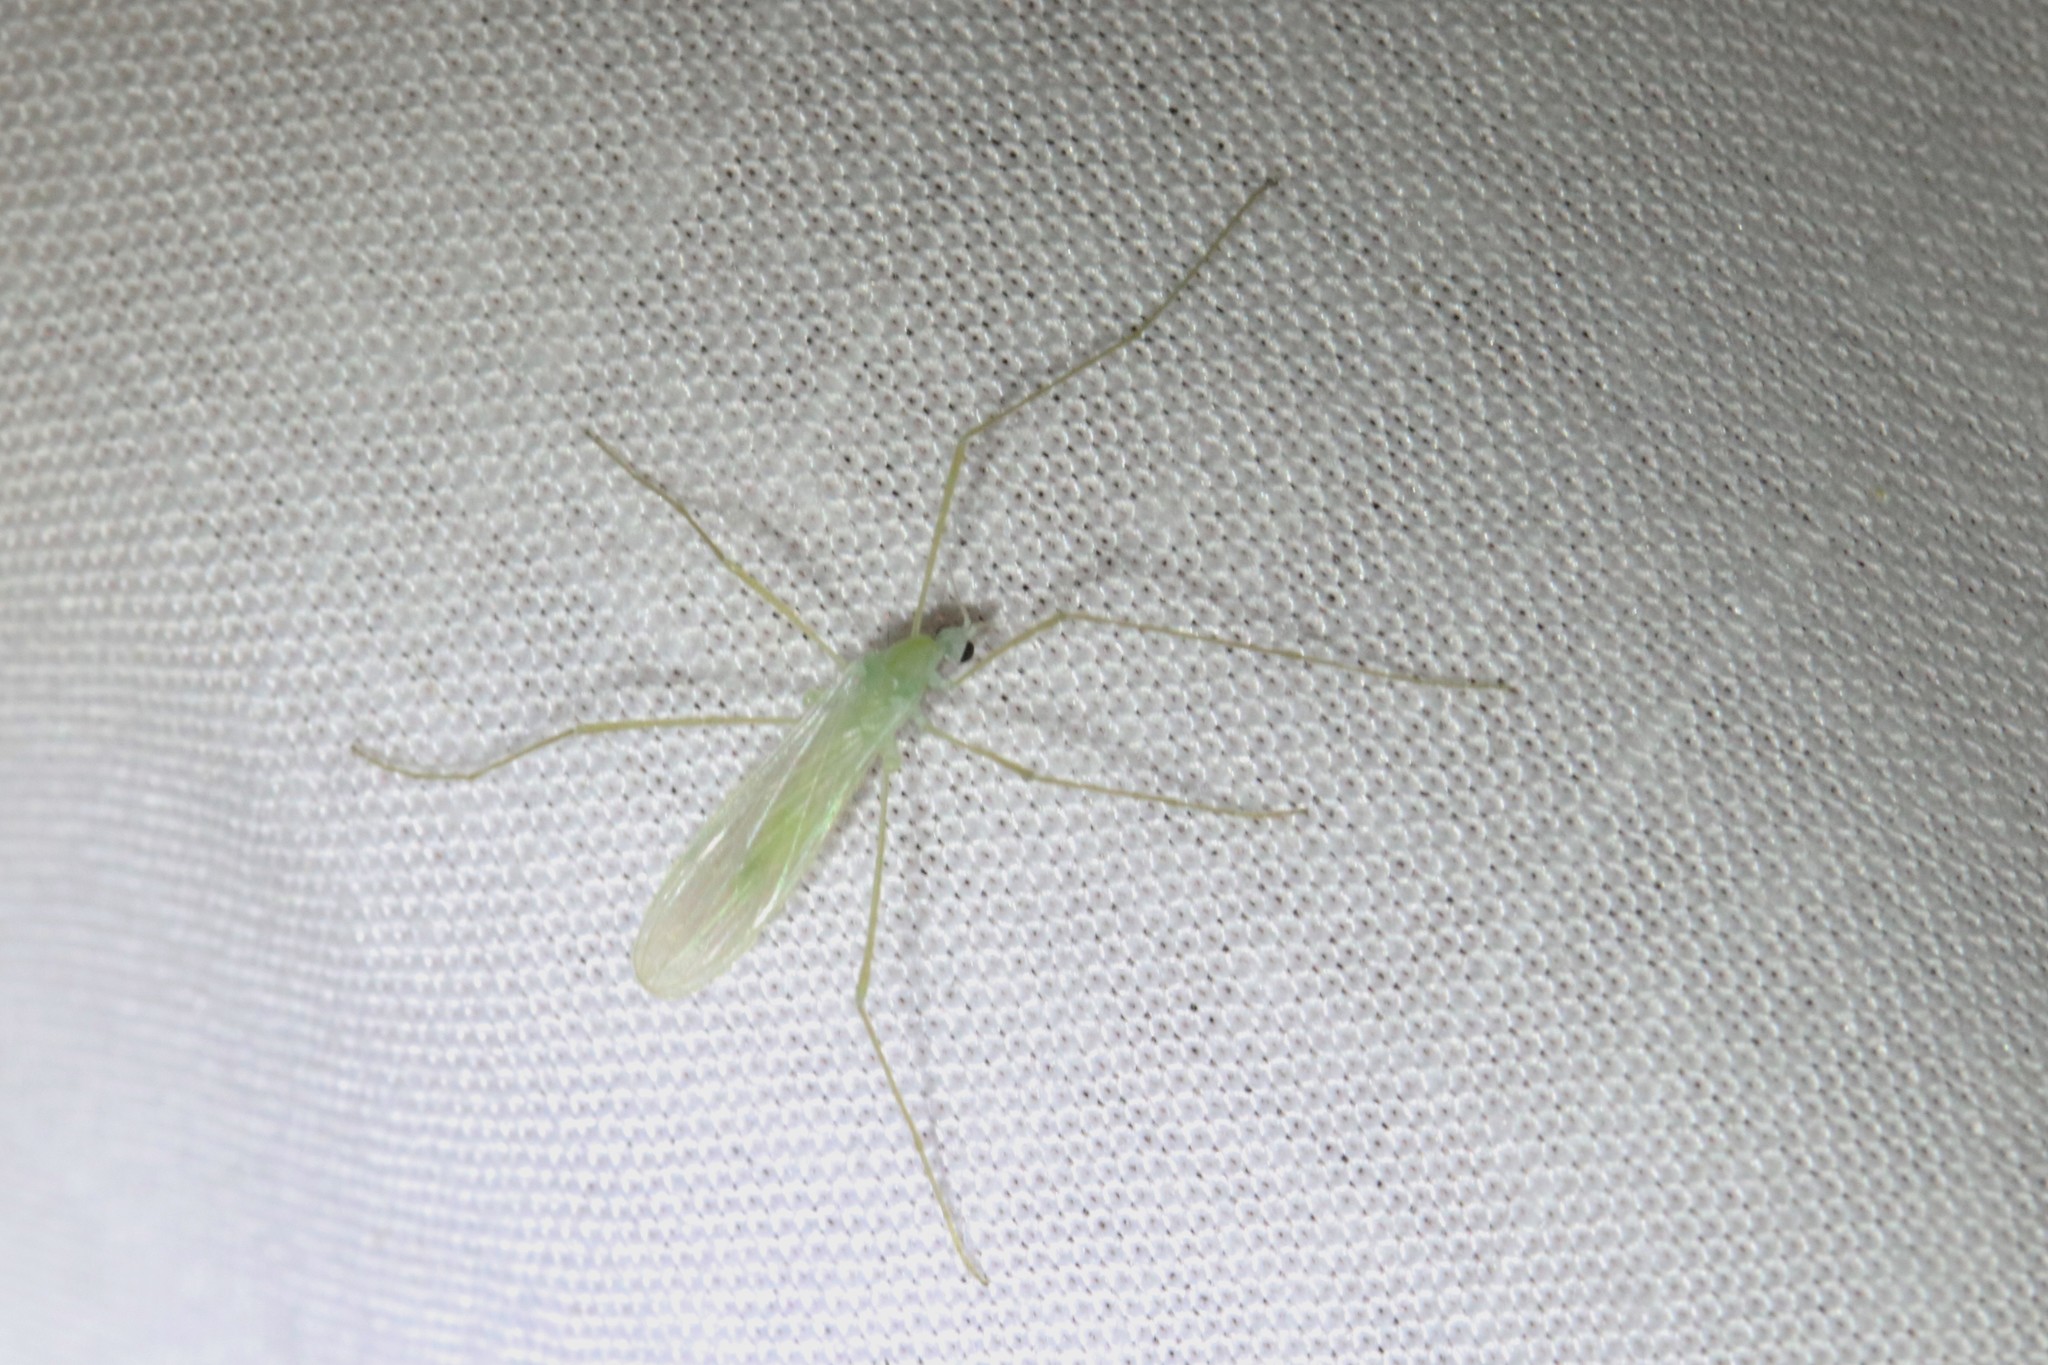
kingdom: Animalia
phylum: Arthropoda
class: Insecta
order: Diptera
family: Limoniidae
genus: Erioptera
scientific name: Erioptera
